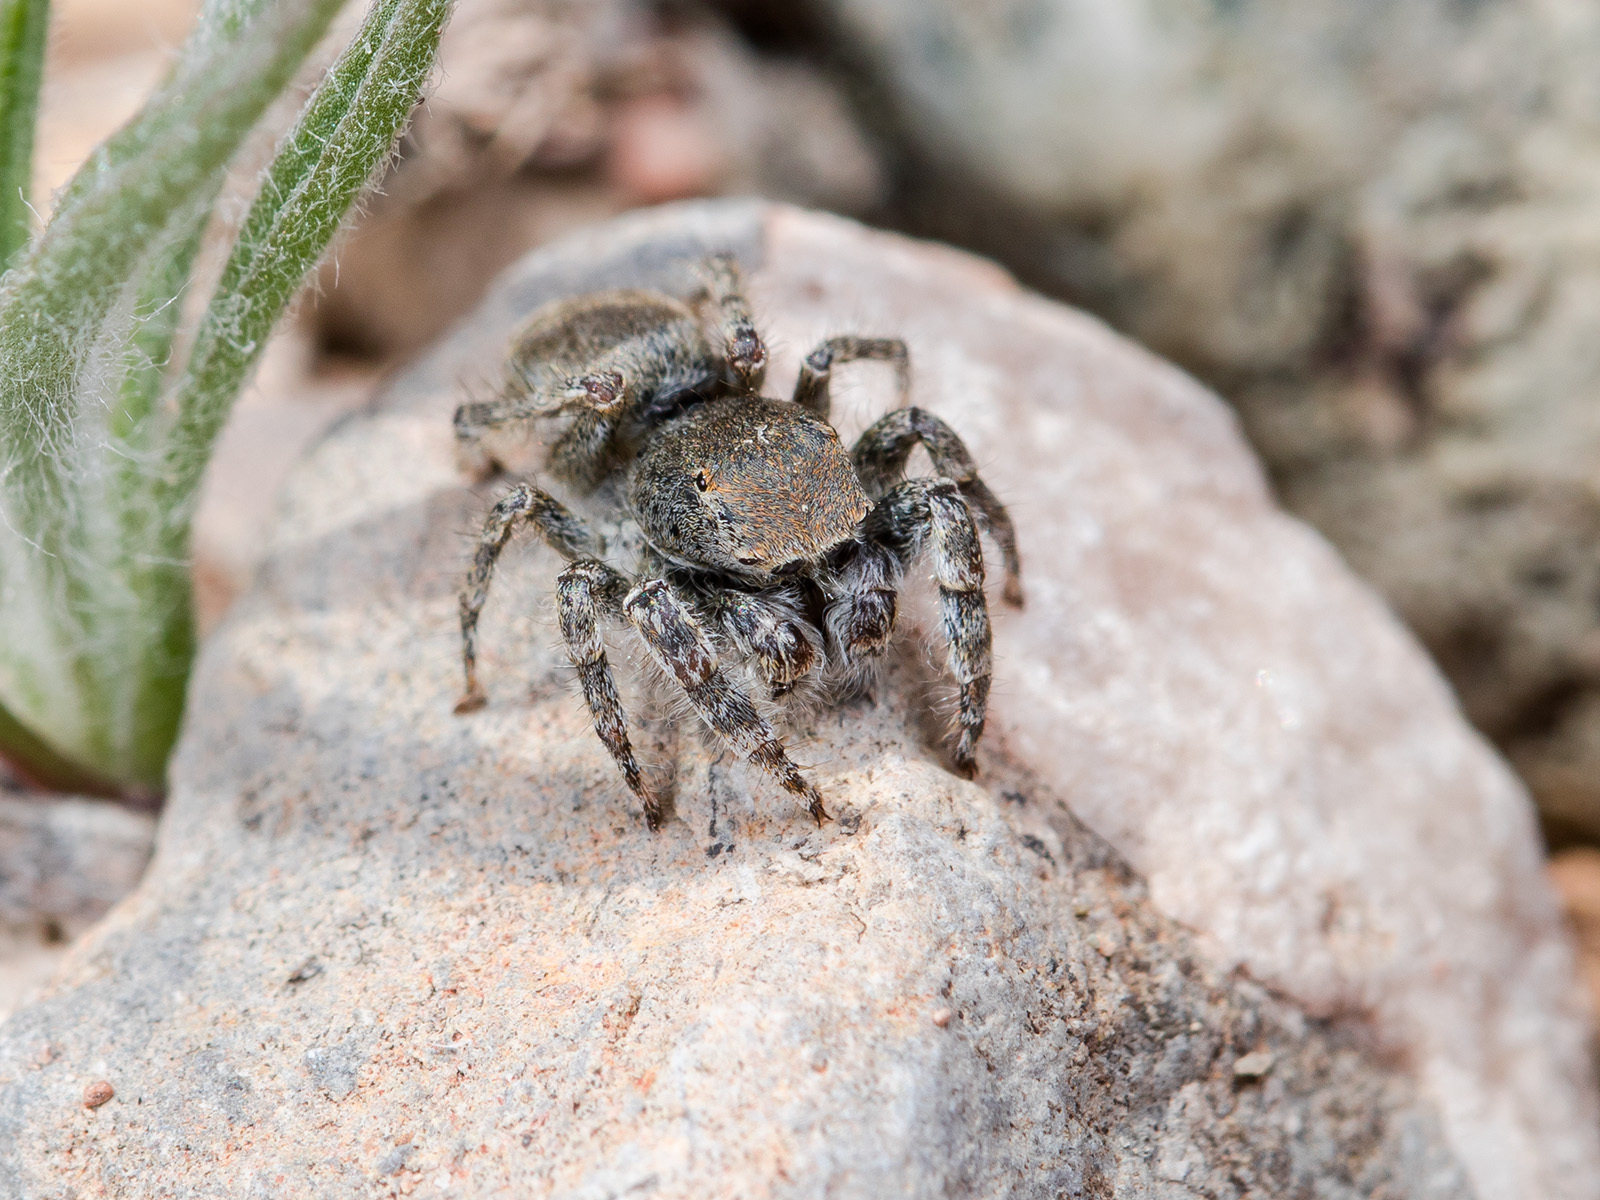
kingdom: Animalia
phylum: Arthropoda
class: Arachnida
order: Araneae
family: Salticidae
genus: Yllenus
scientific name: Yllenus charynensis
